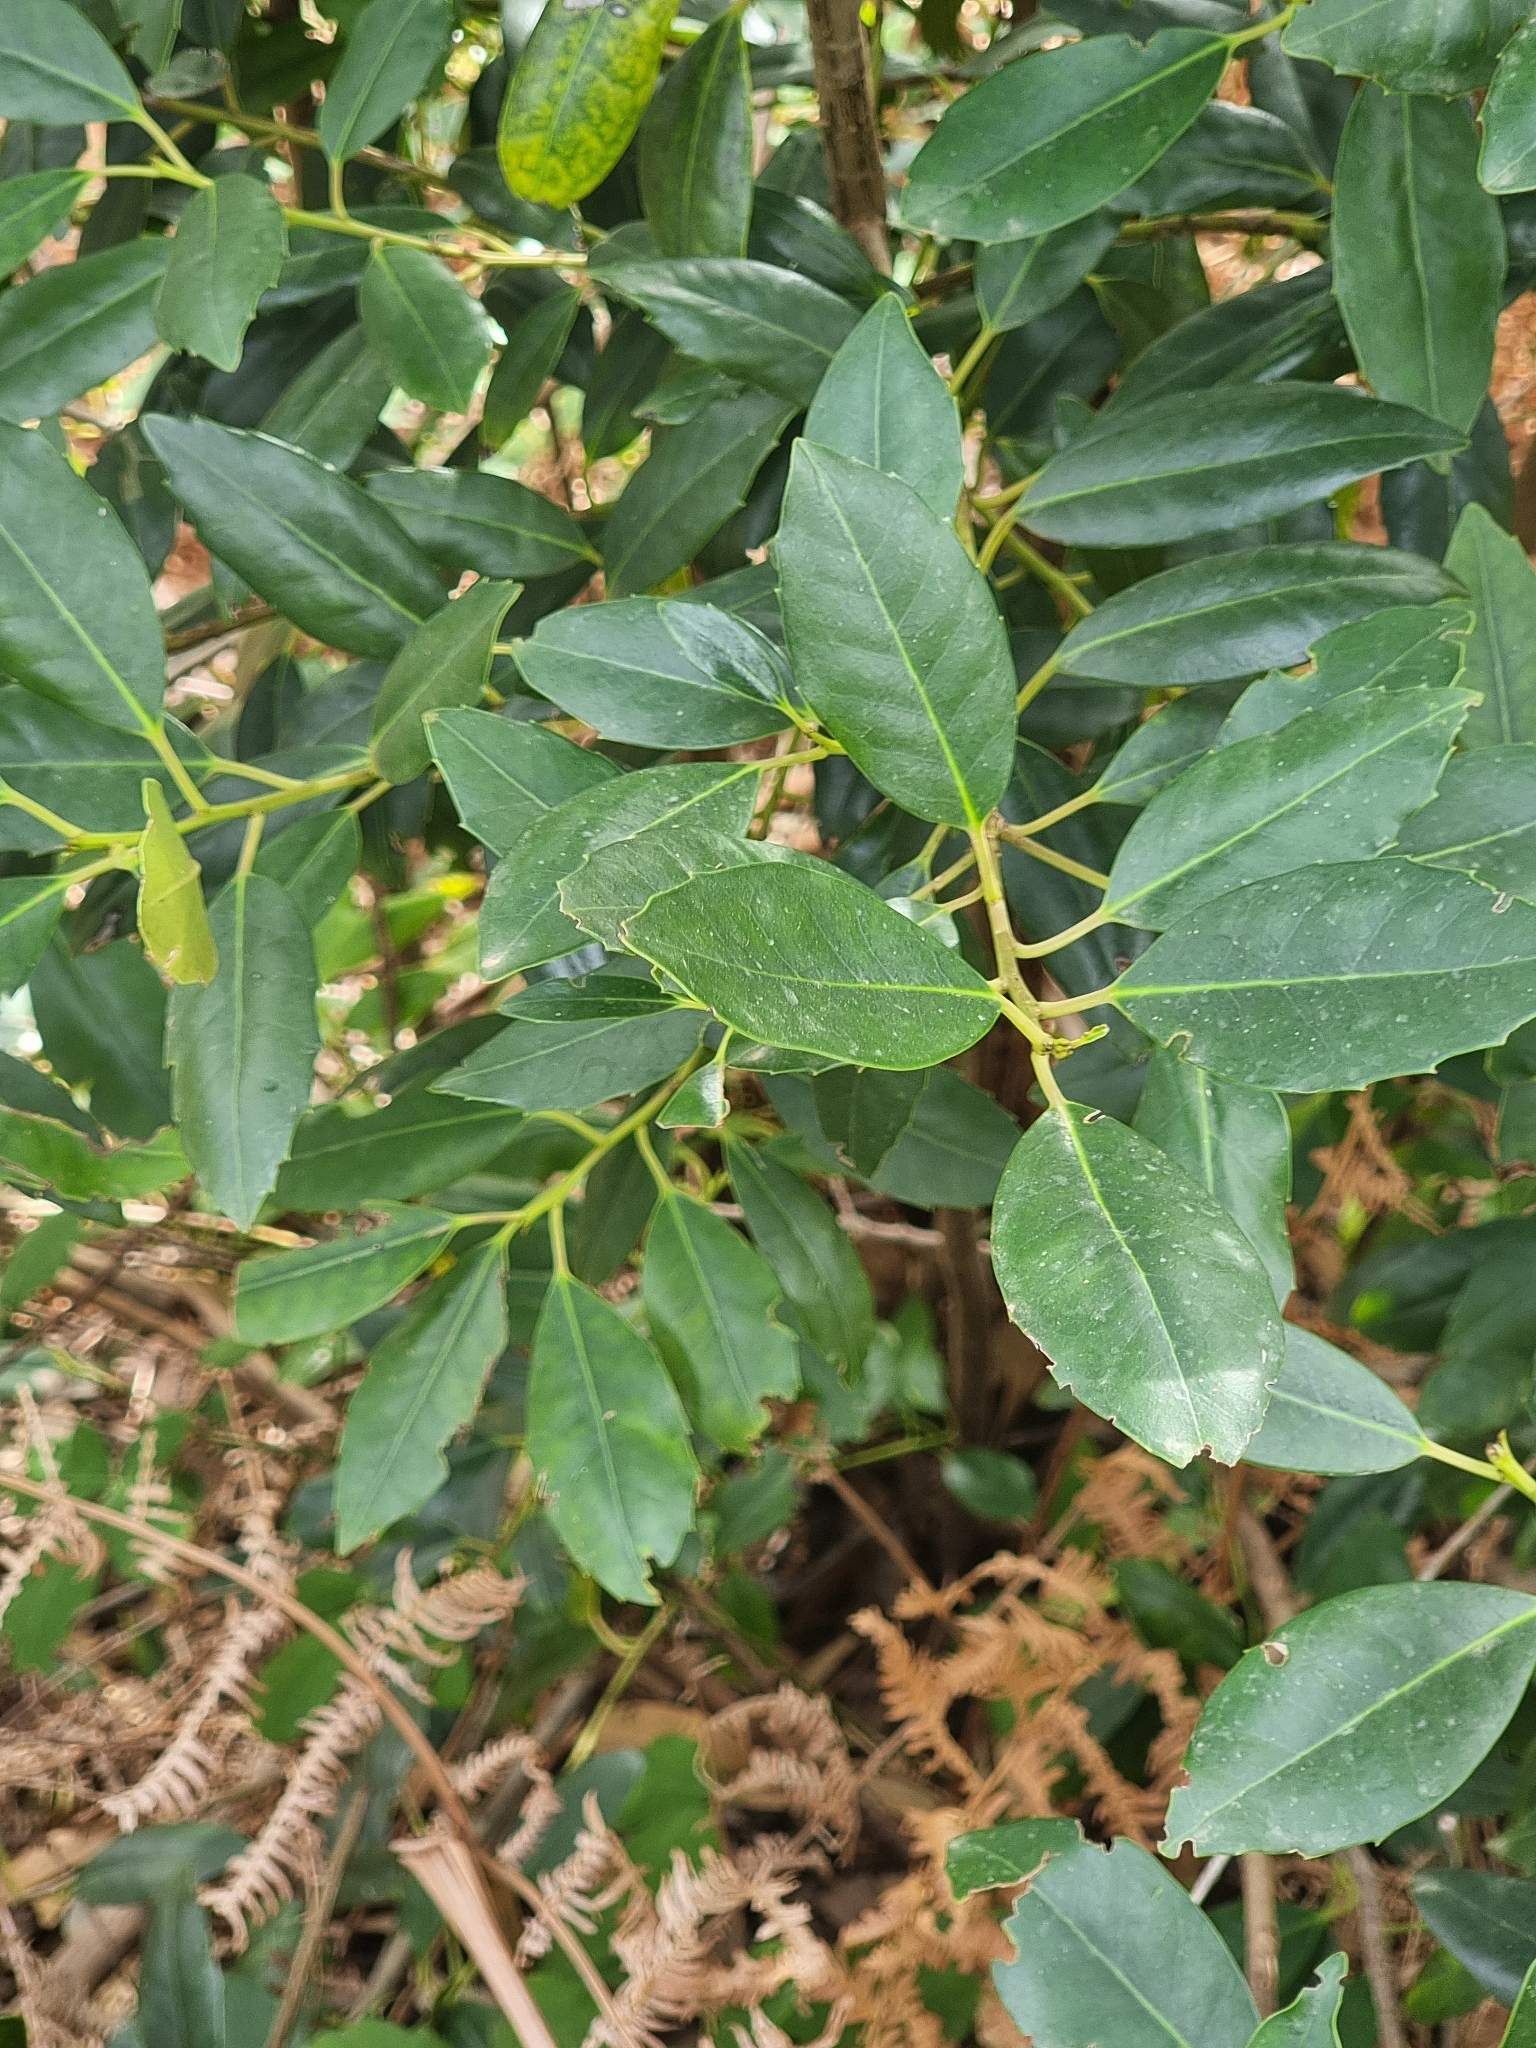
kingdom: Plantae
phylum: Tracheophyta
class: Magnoliopsida
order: Aquifoliales
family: Aquifoliaceae
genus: Ilex
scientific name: Ilex canariensis
